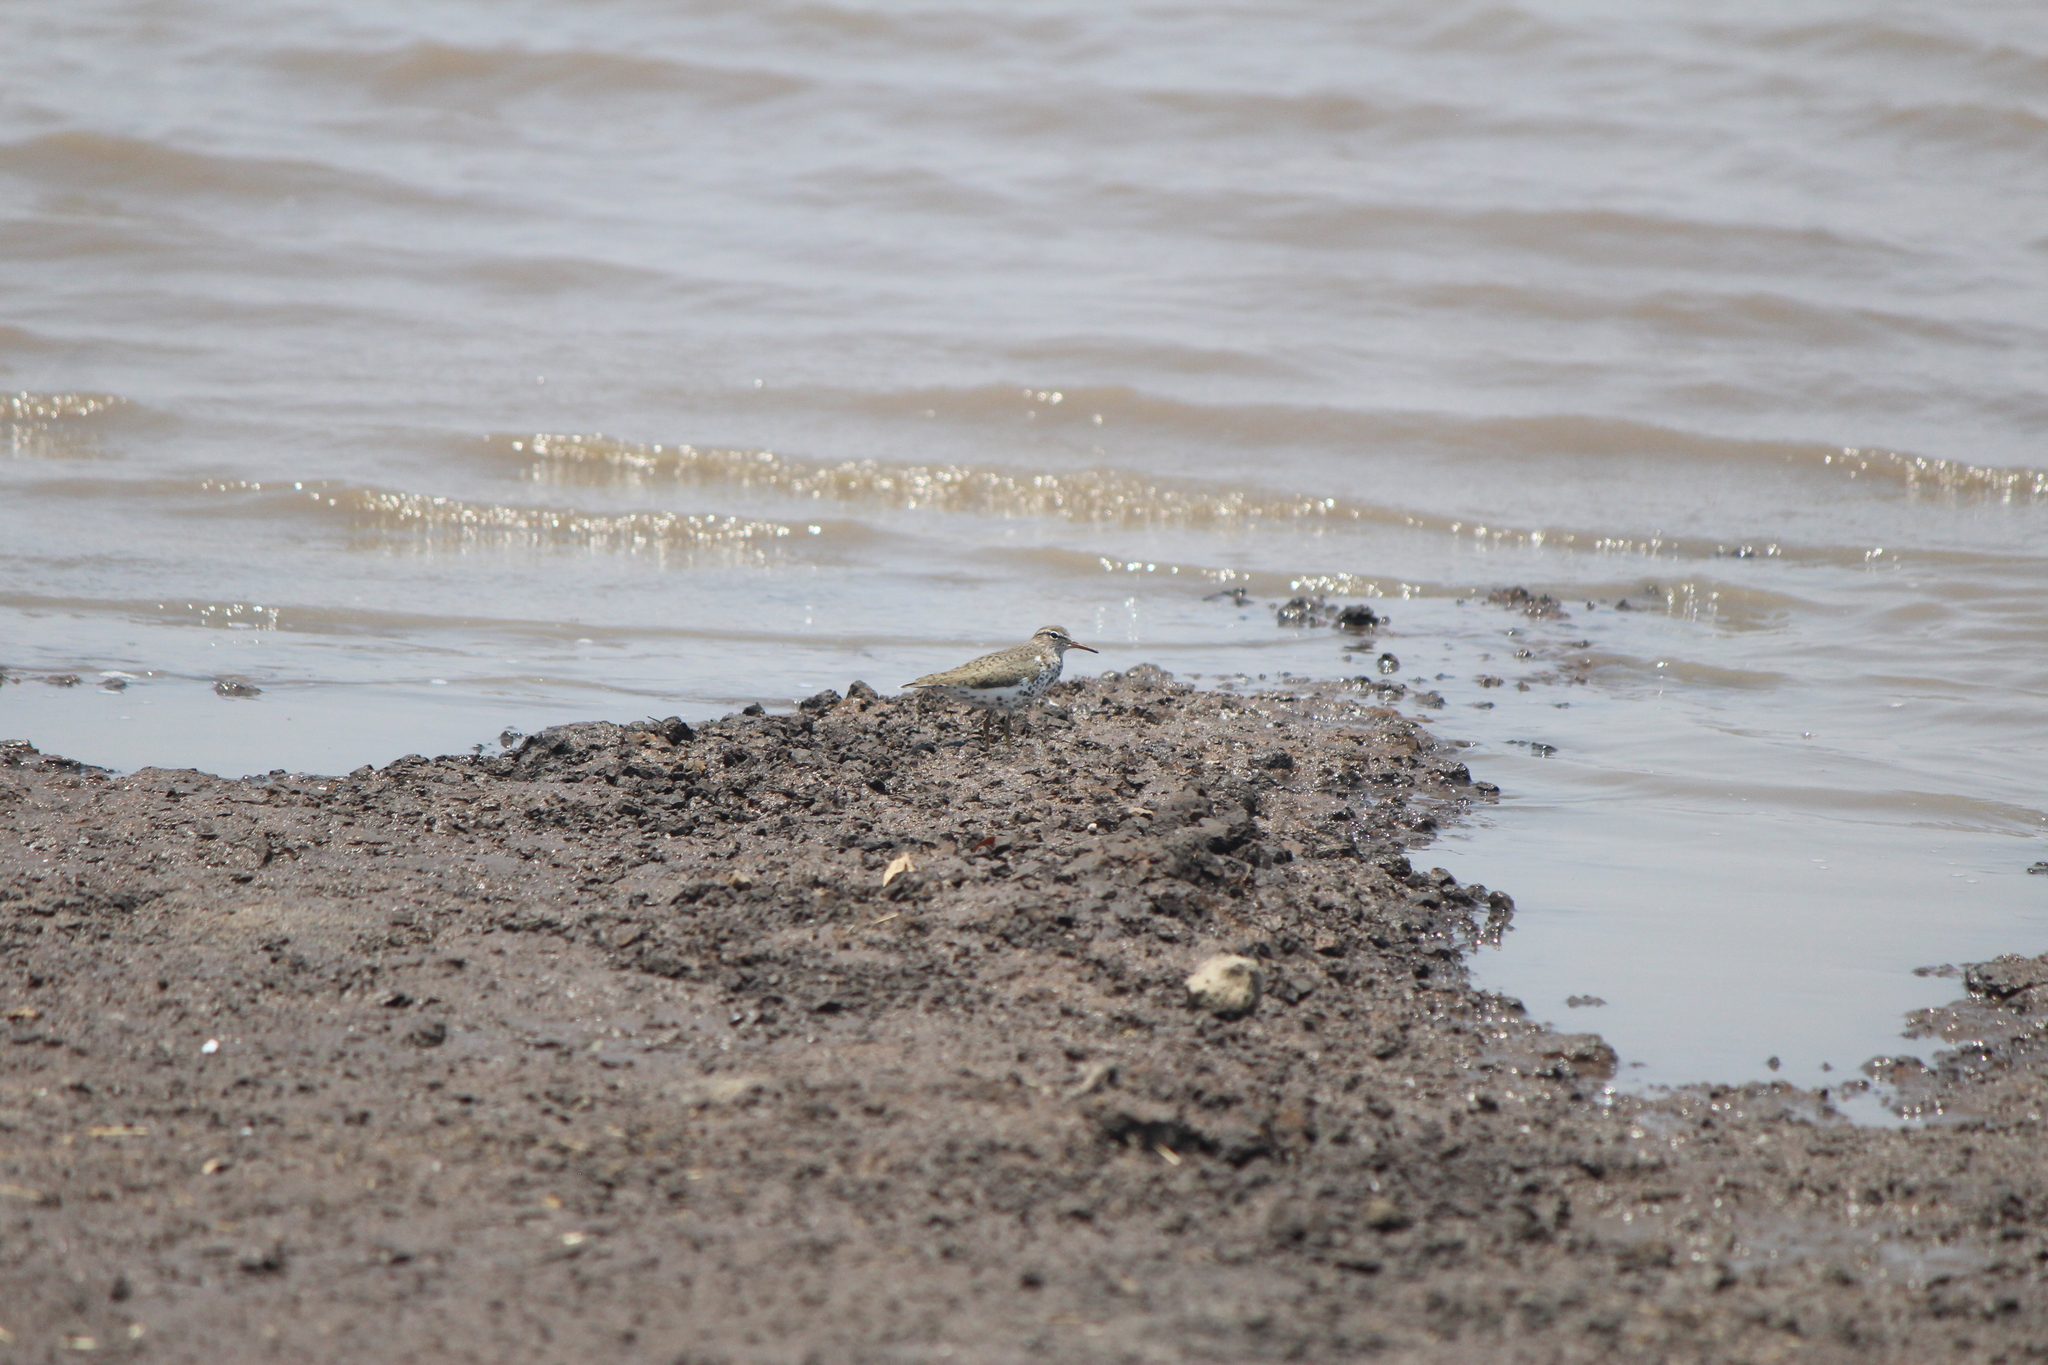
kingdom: Animalia
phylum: Chordata
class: Aves
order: Charadriiformes
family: Scolopacidae
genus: Actitis
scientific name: Actitis macularius
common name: Spotted sandpiper
